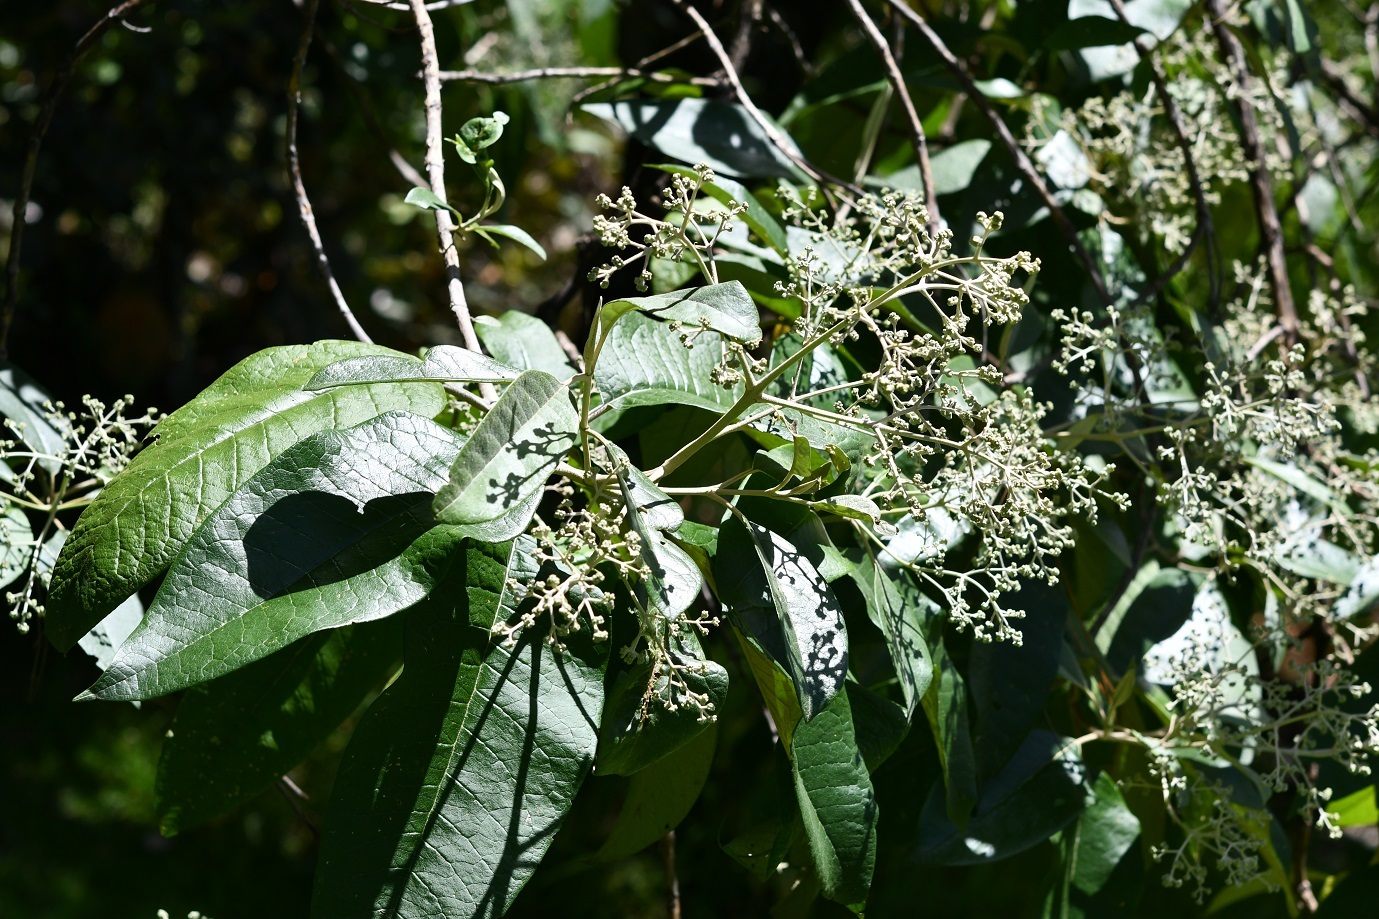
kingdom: Plantae
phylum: Tracheophyta
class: Magnoliopsida
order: Lamiales
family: Scrophulariaceae
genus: Buddleja
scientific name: Buddleja cordata
